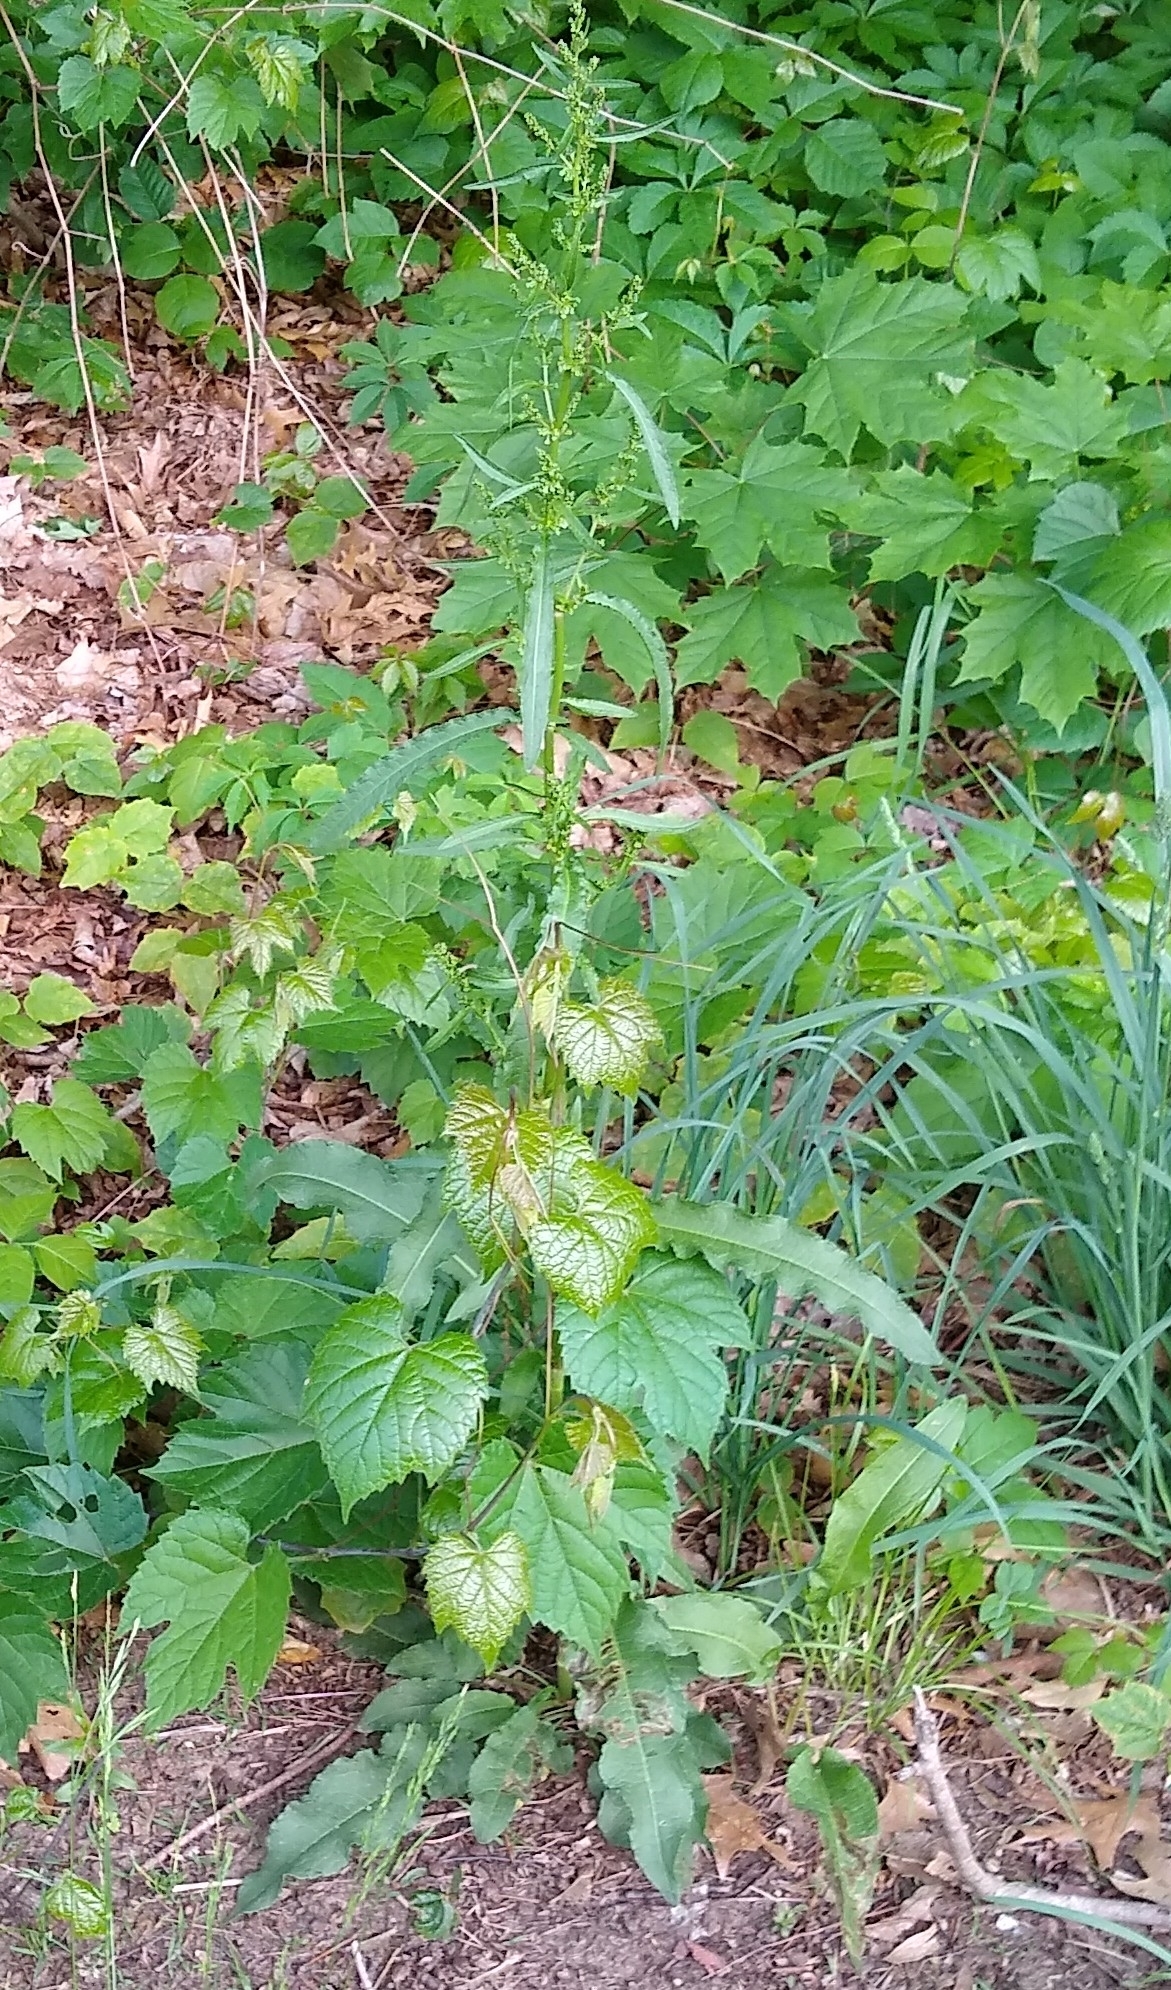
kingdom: Plantae
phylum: Tracheophyta
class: Magnoliopsida
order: Caryophyllales
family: Polygonaceae
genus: Rumex
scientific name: Rumex crispus
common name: Curled dock
